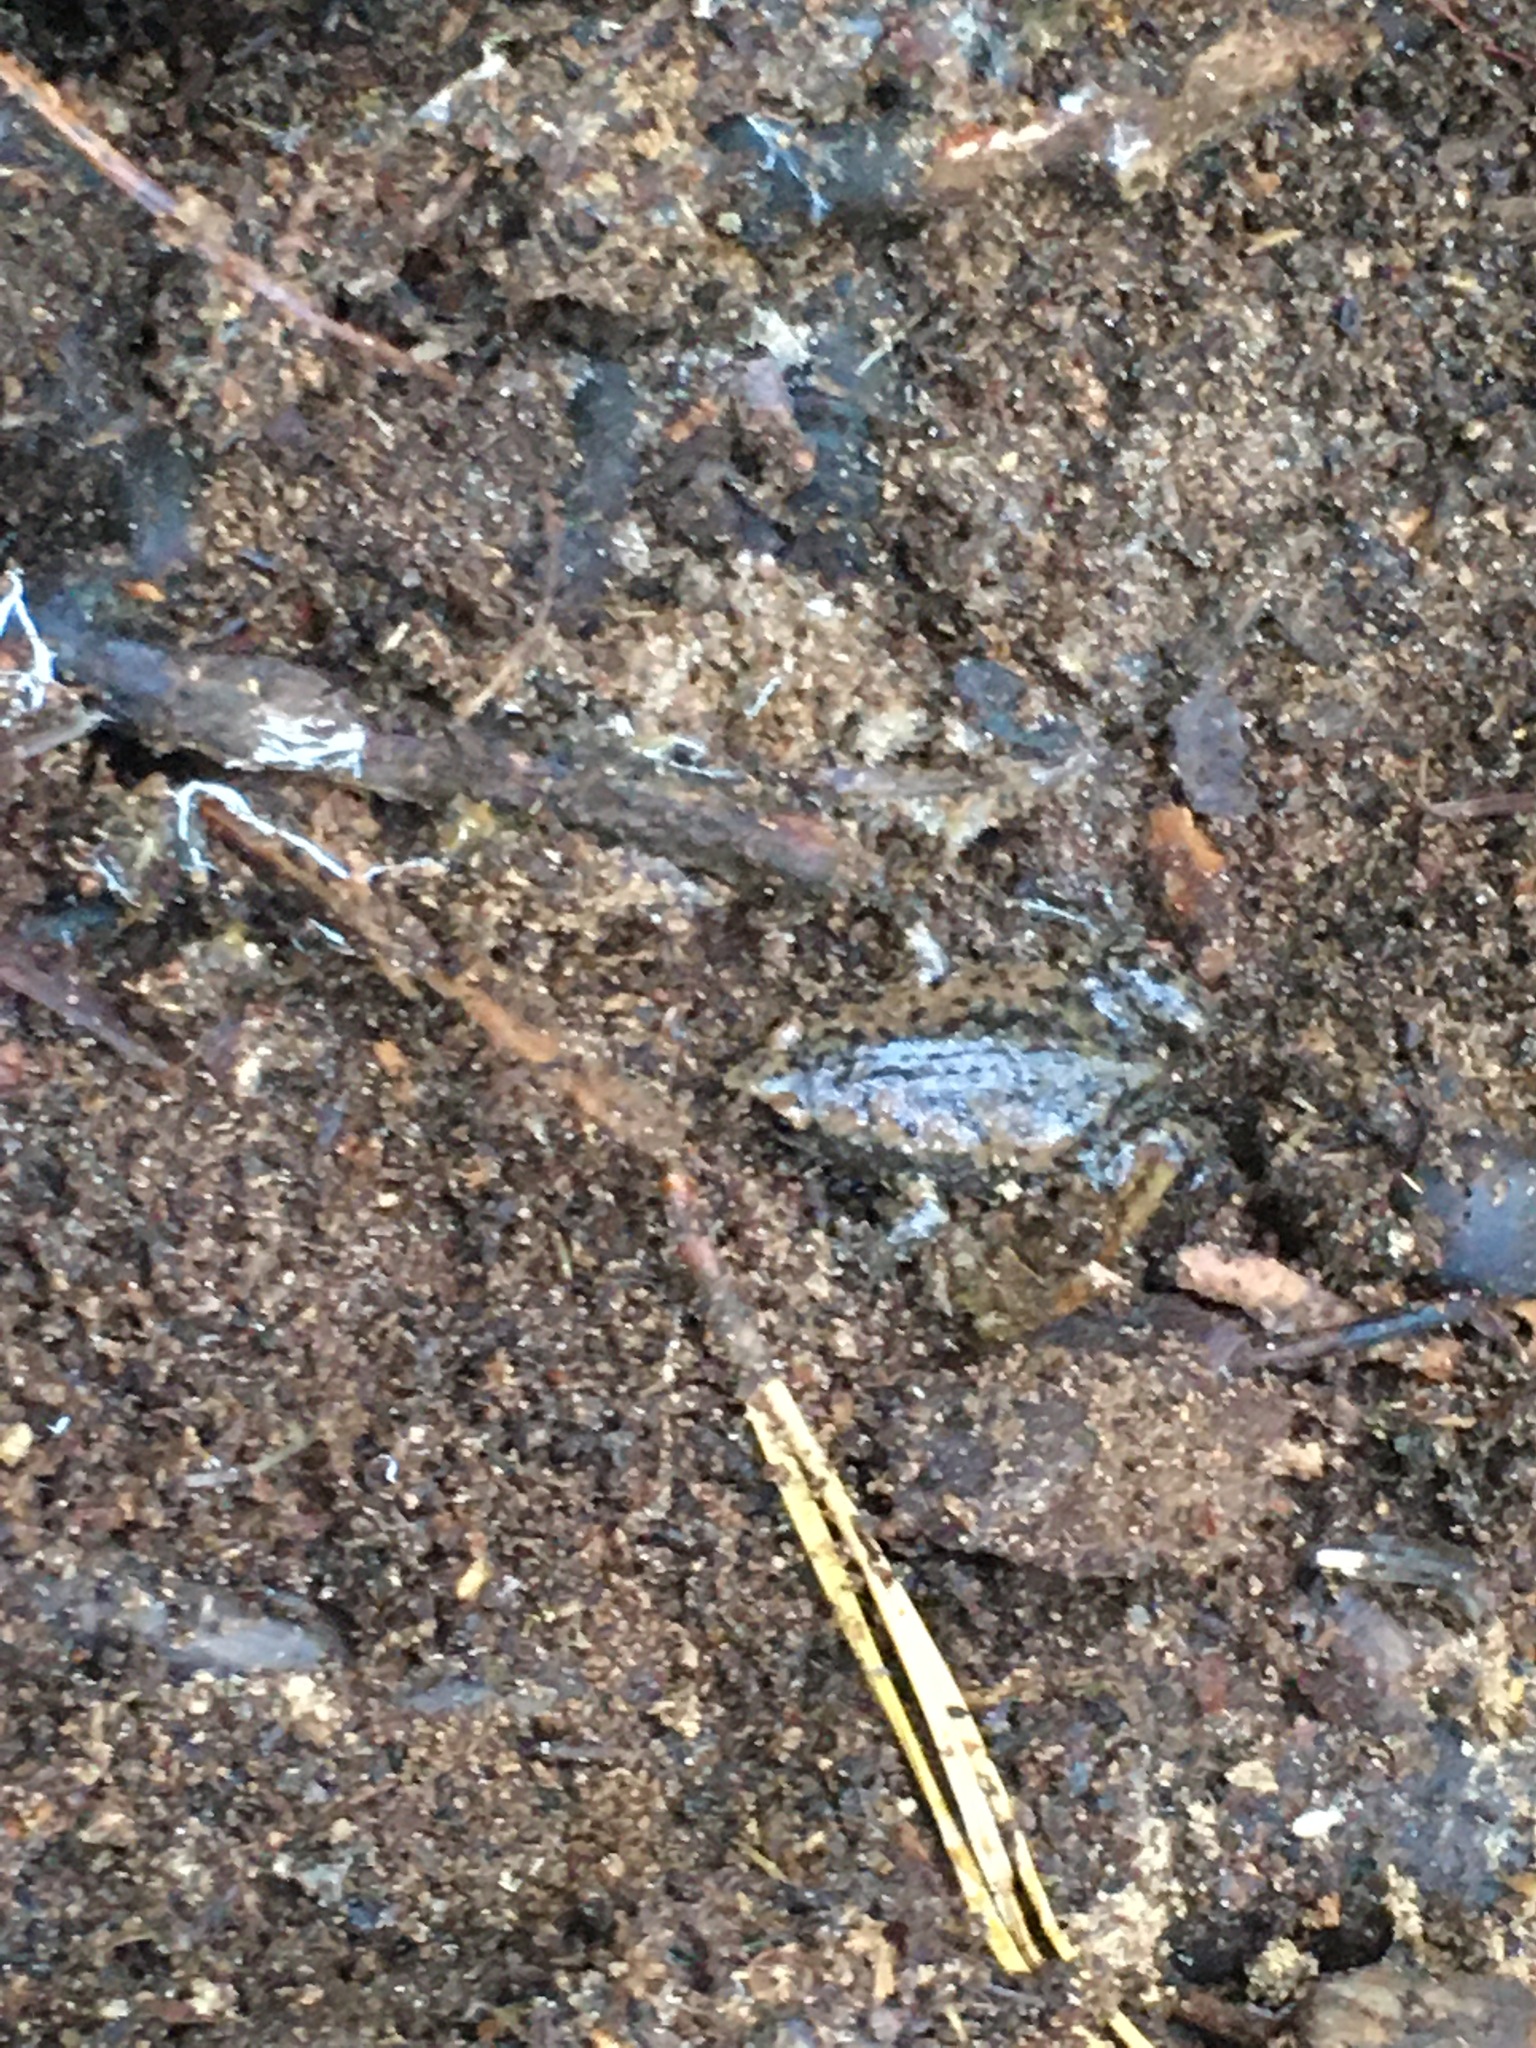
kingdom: Animalia
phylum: Chordata
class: Amphibia
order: Anura
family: Microhylidae
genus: Gastrophryne
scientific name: Gastrophryne carolinensis
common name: Eastern narrowmouth toad
